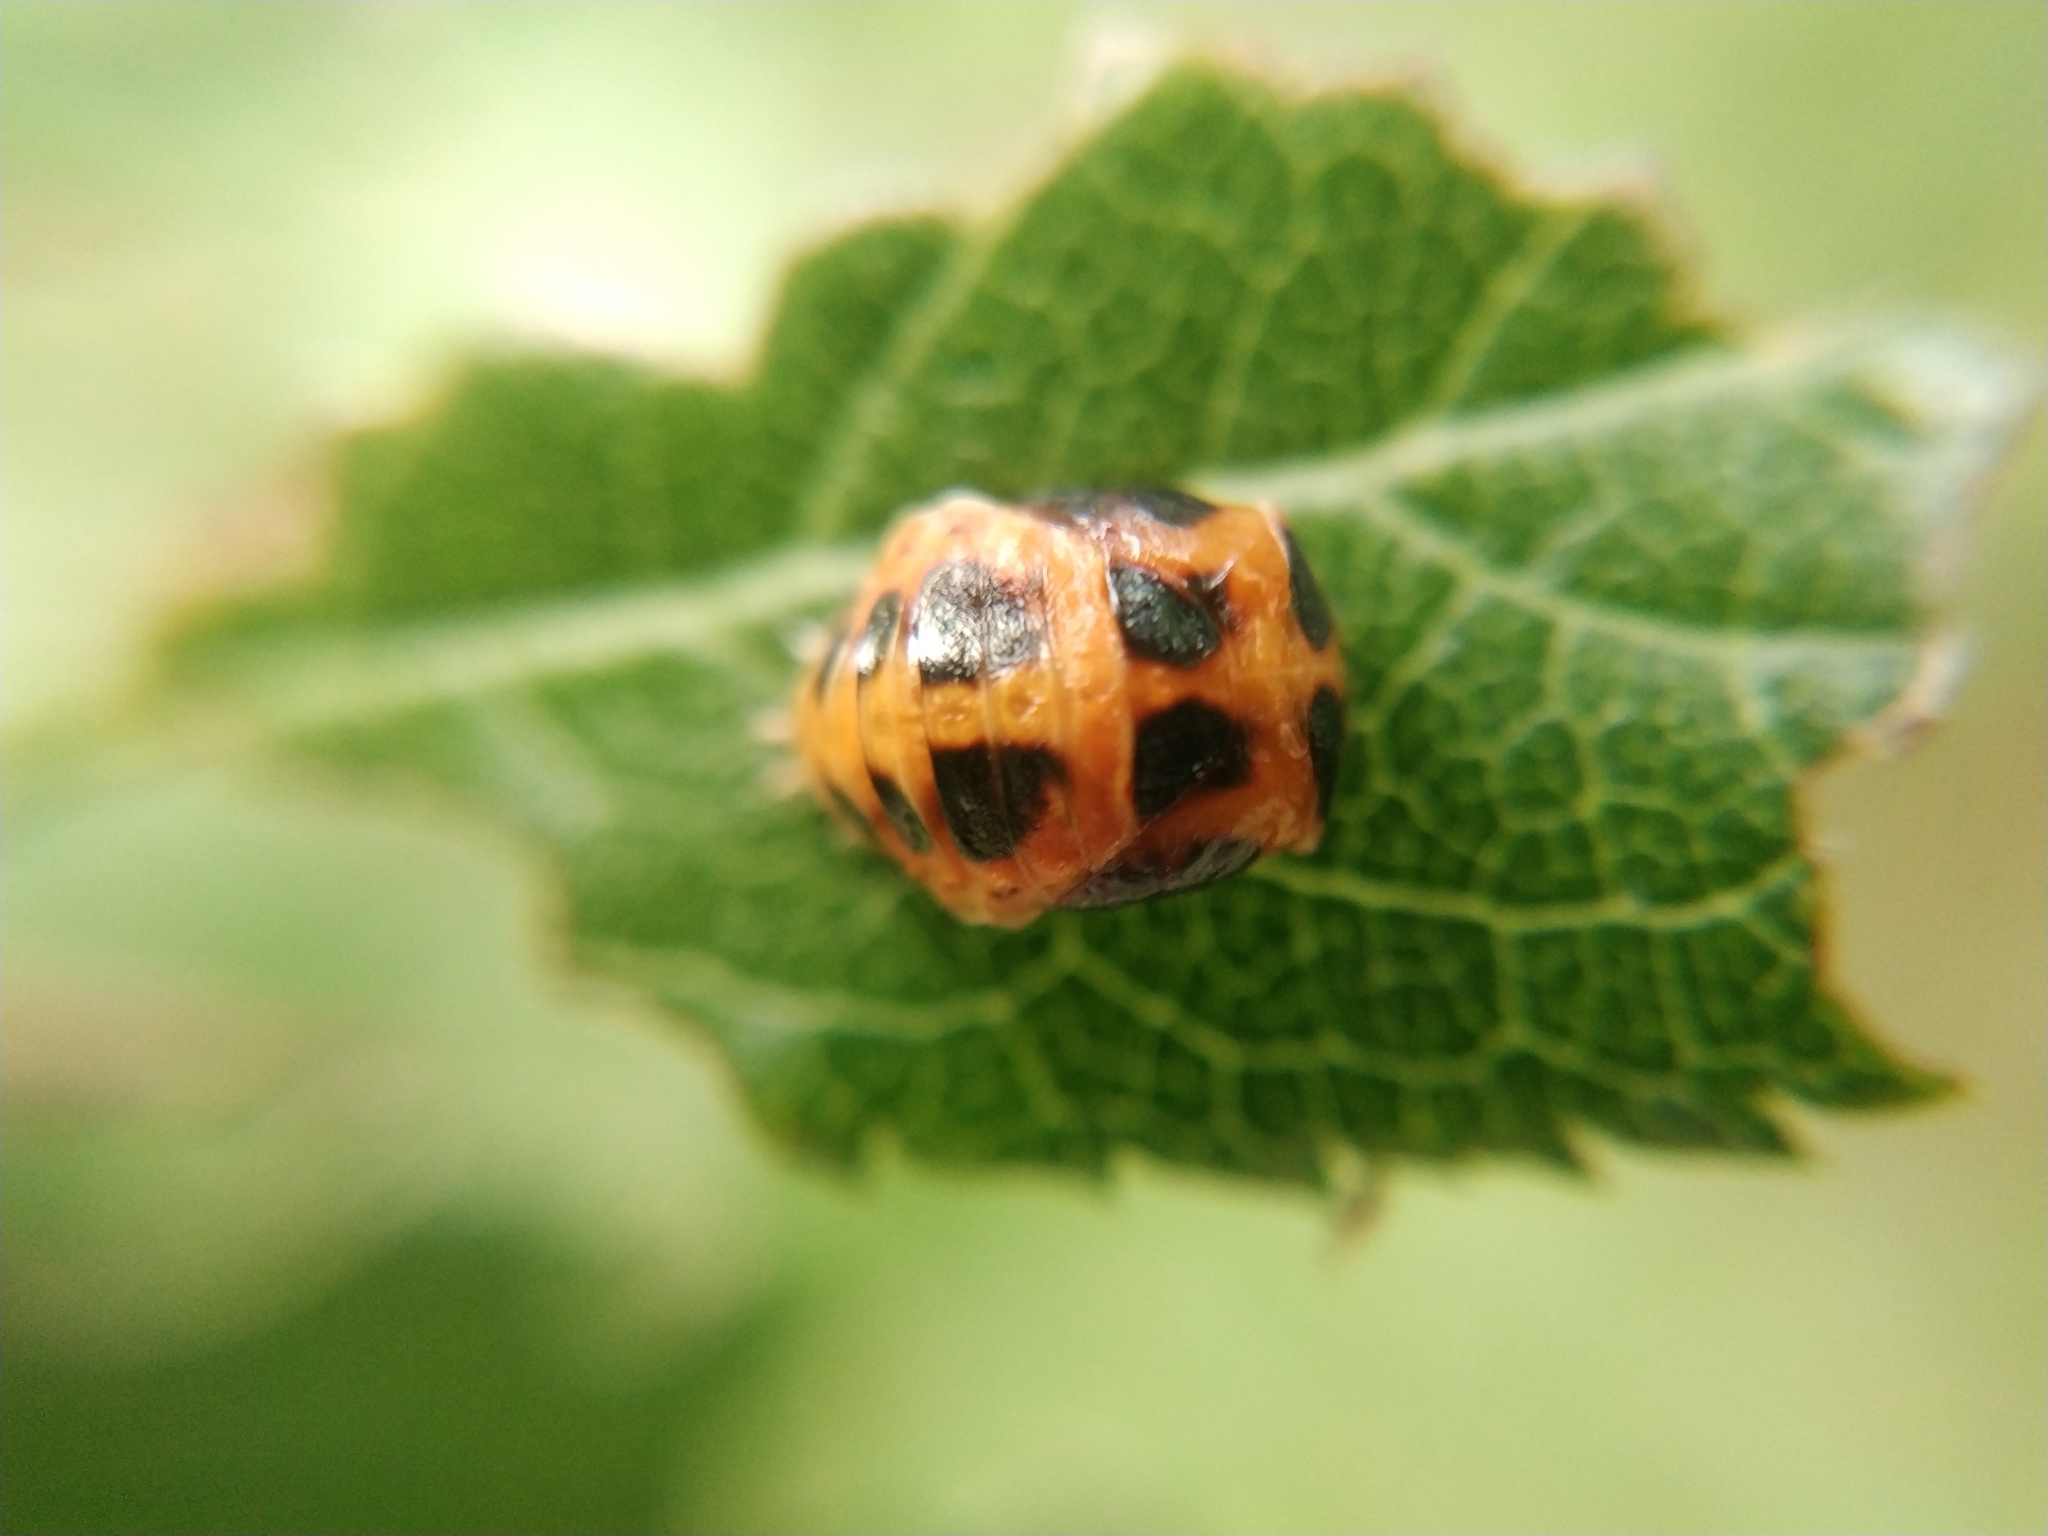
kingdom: Animalia
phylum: Arthropoda
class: Insecta
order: Coleoptera
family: Coccinellidae
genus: Harmonia
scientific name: Harmonia axyridis
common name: Harlequin ladybird
